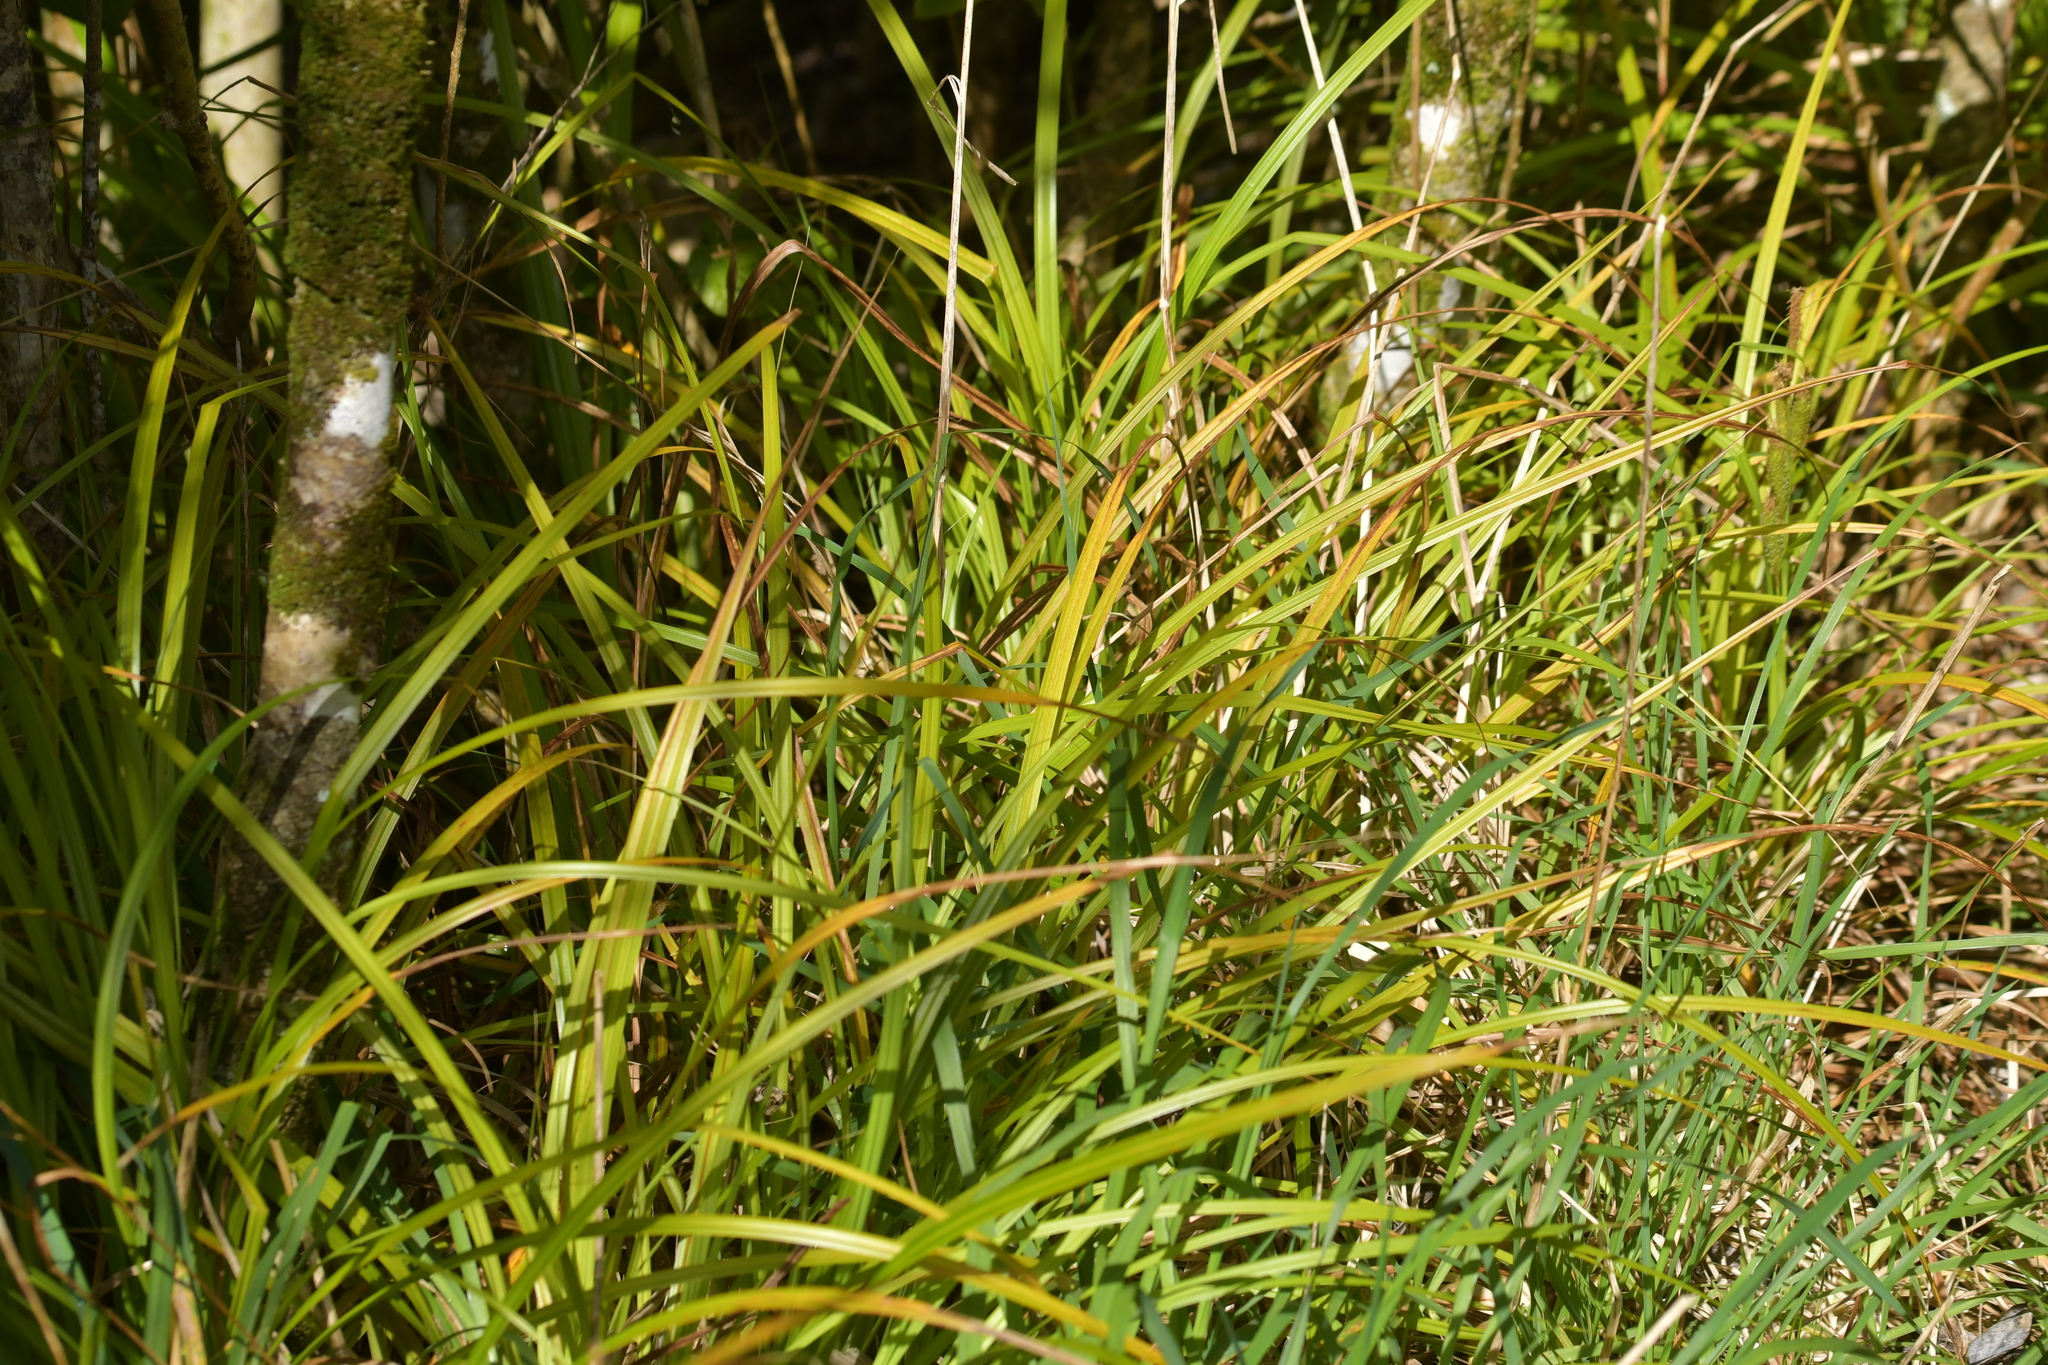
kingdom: Plantae
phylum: Tracheophyta
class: Liliopsida
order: Poales
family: Cyperaceae
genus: Carex
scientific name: Carex ventosa
